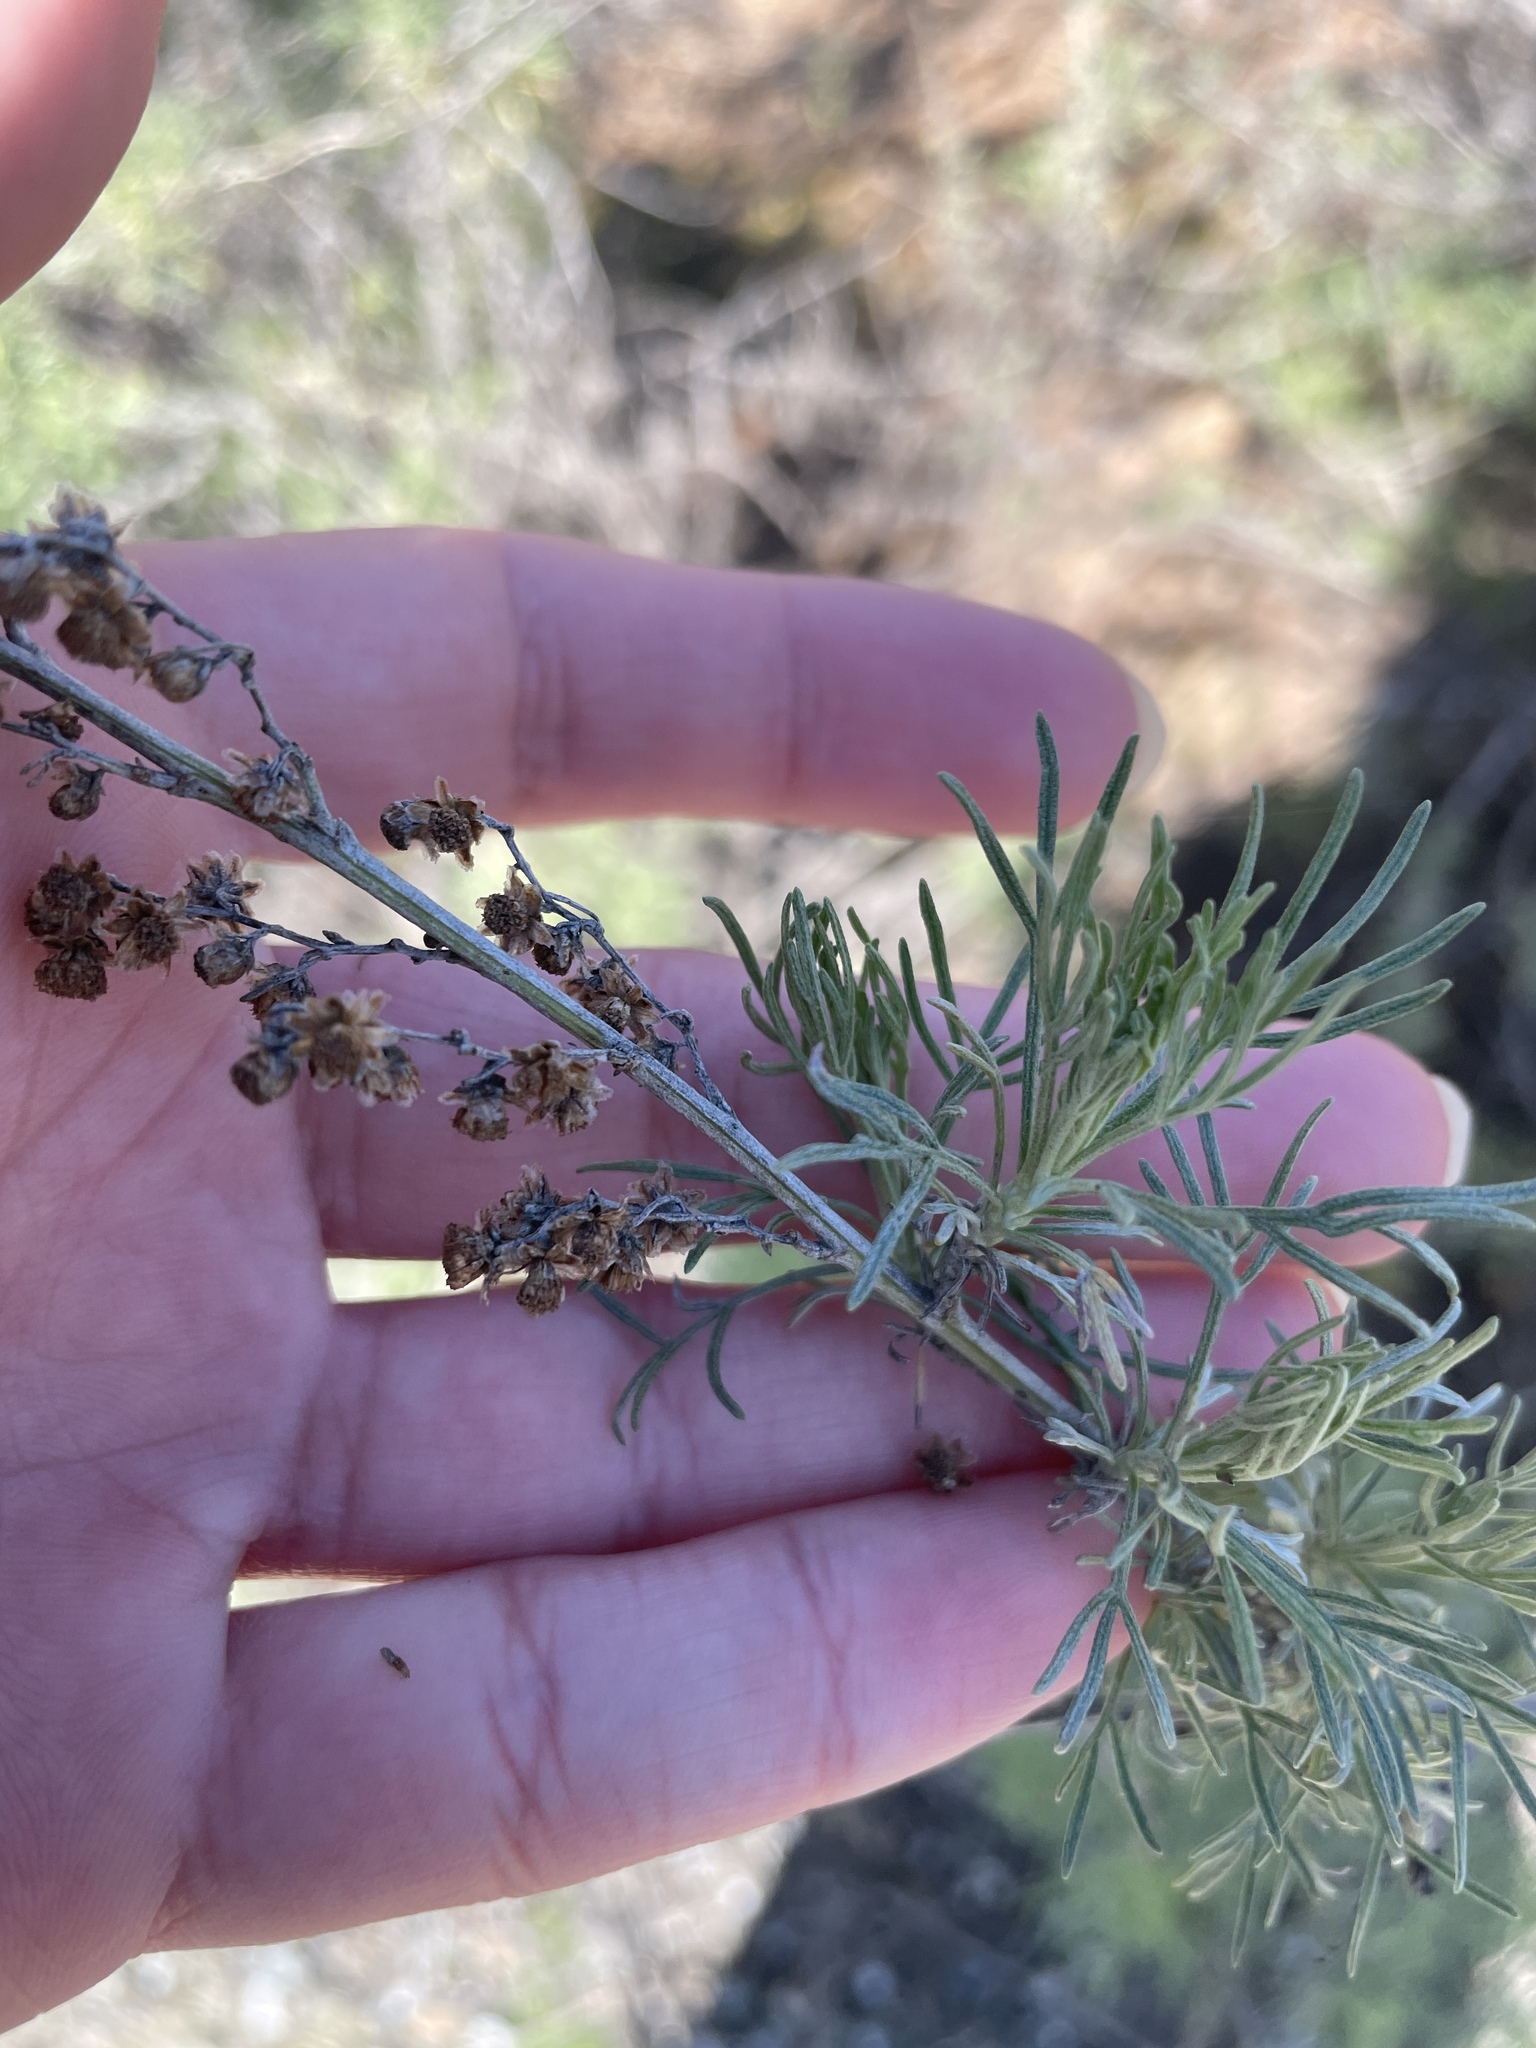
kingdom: Plantae
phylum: Tracheophyta
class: Magnoliopsida
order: Asterales
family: Asteraceae
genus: Artemisia
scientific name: Artemisia californica
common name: California sagebrush
